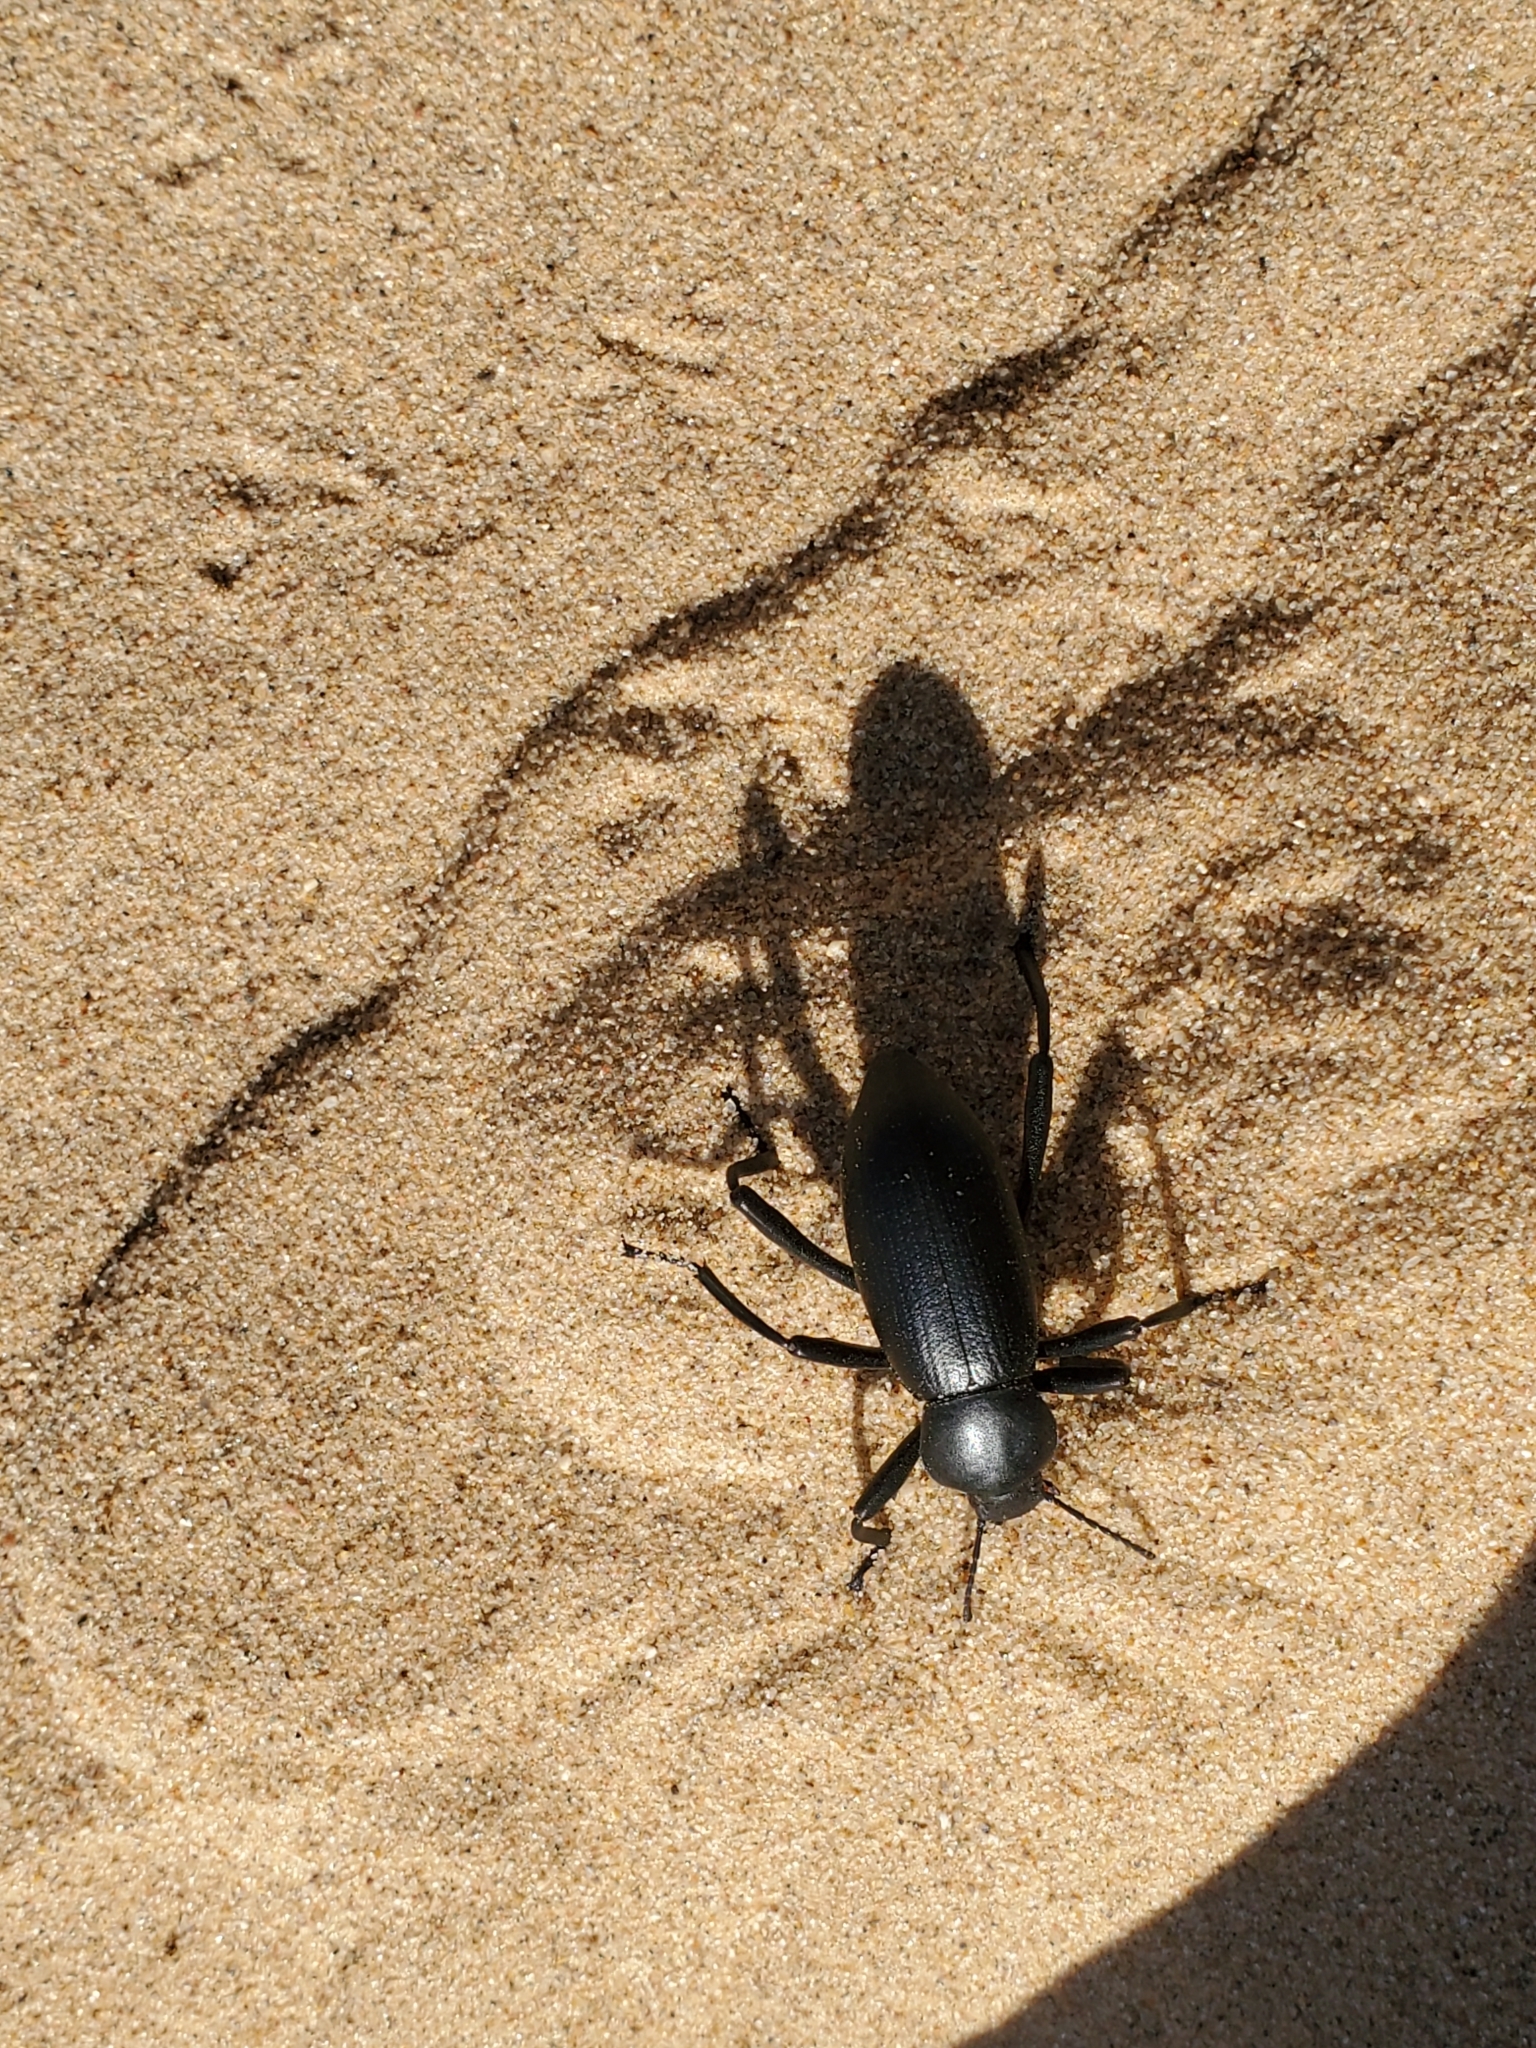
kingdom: Animalia
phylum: Arthropoda
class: Insecta
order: Coleoptera
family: Tenebrionidae
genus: Eleodes
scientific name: Eleodes armata
